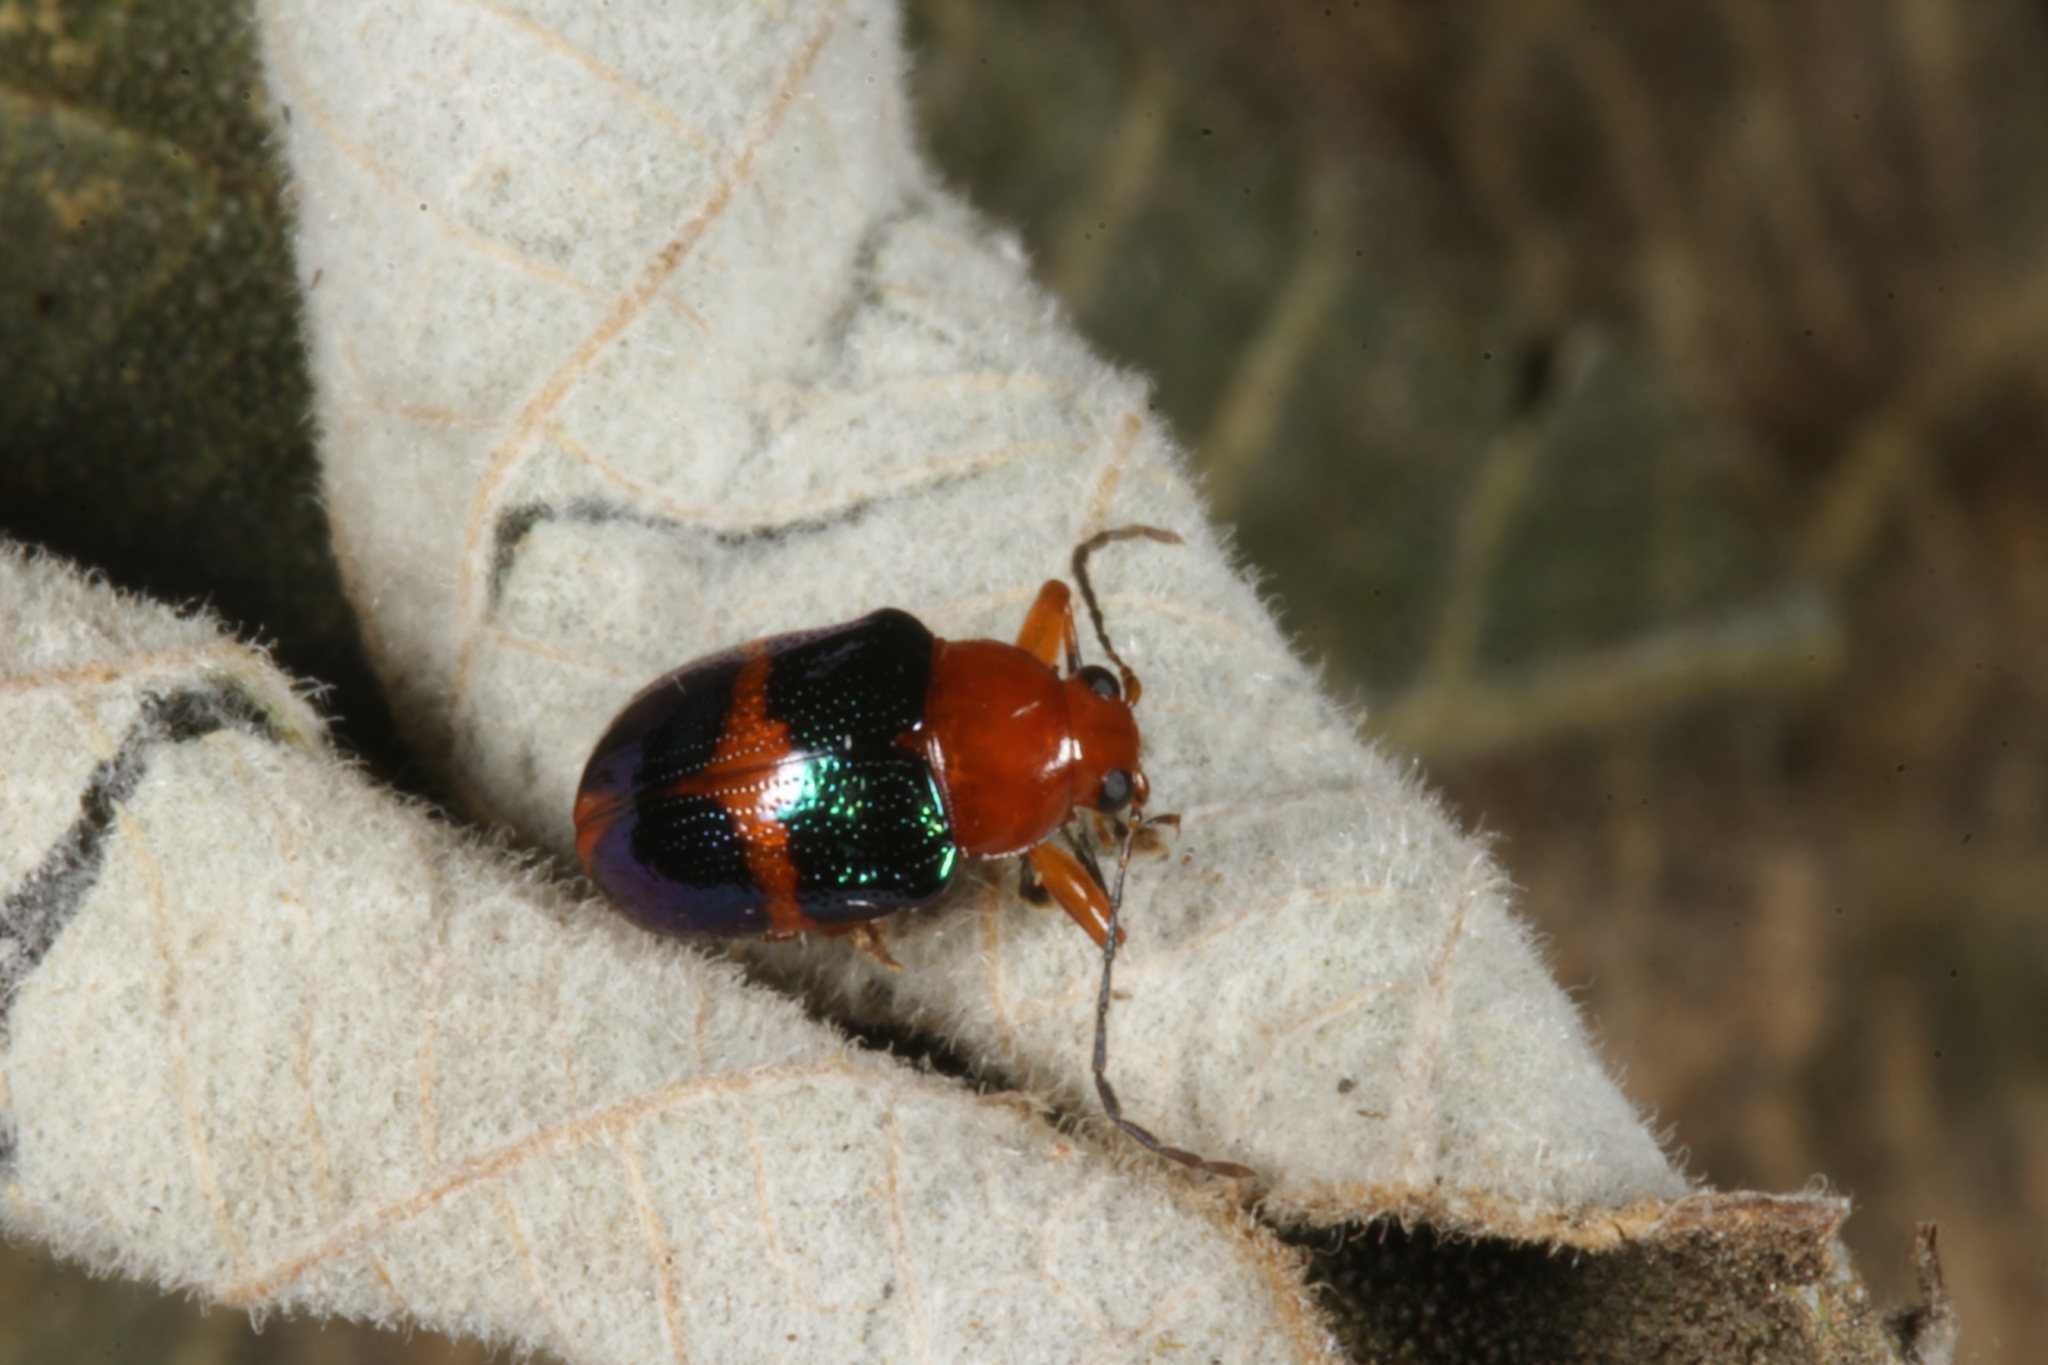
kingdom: Animalia
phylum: Arthropoda
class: Insecta
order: Coleoptera
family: Chrysomelidae
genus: Chalcophana
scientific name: Chalcophana cincta
